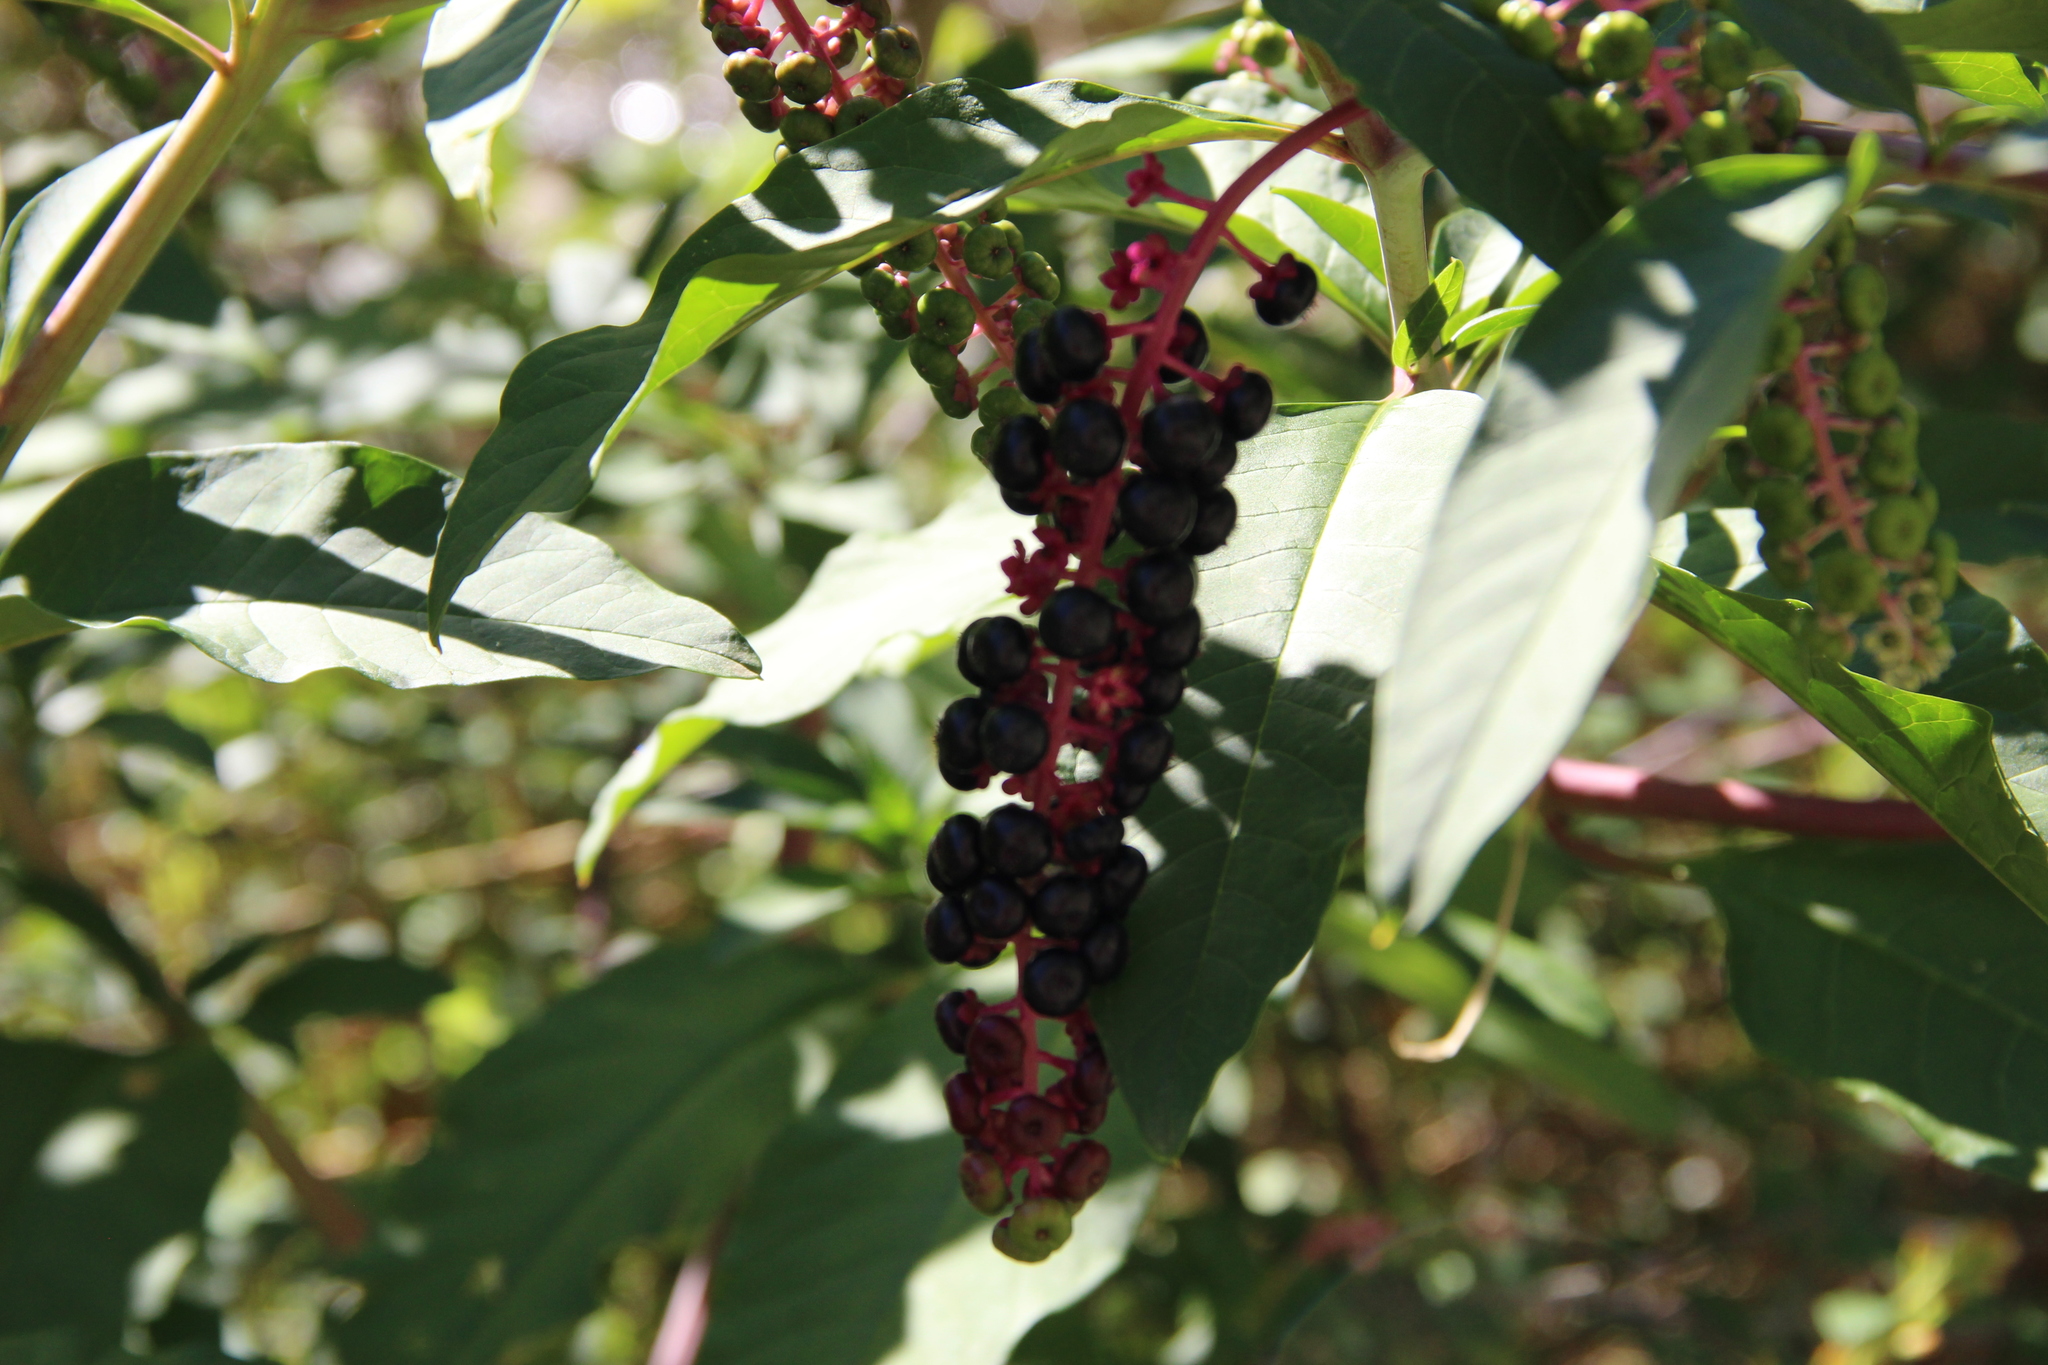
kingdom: Plantae
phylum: Tracheophyta
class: Magnoliopsida
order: Caryophyllales
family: Phytolaccaceae
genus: Phytolacca
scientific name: Phytolacca americana
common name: American pokeweed
